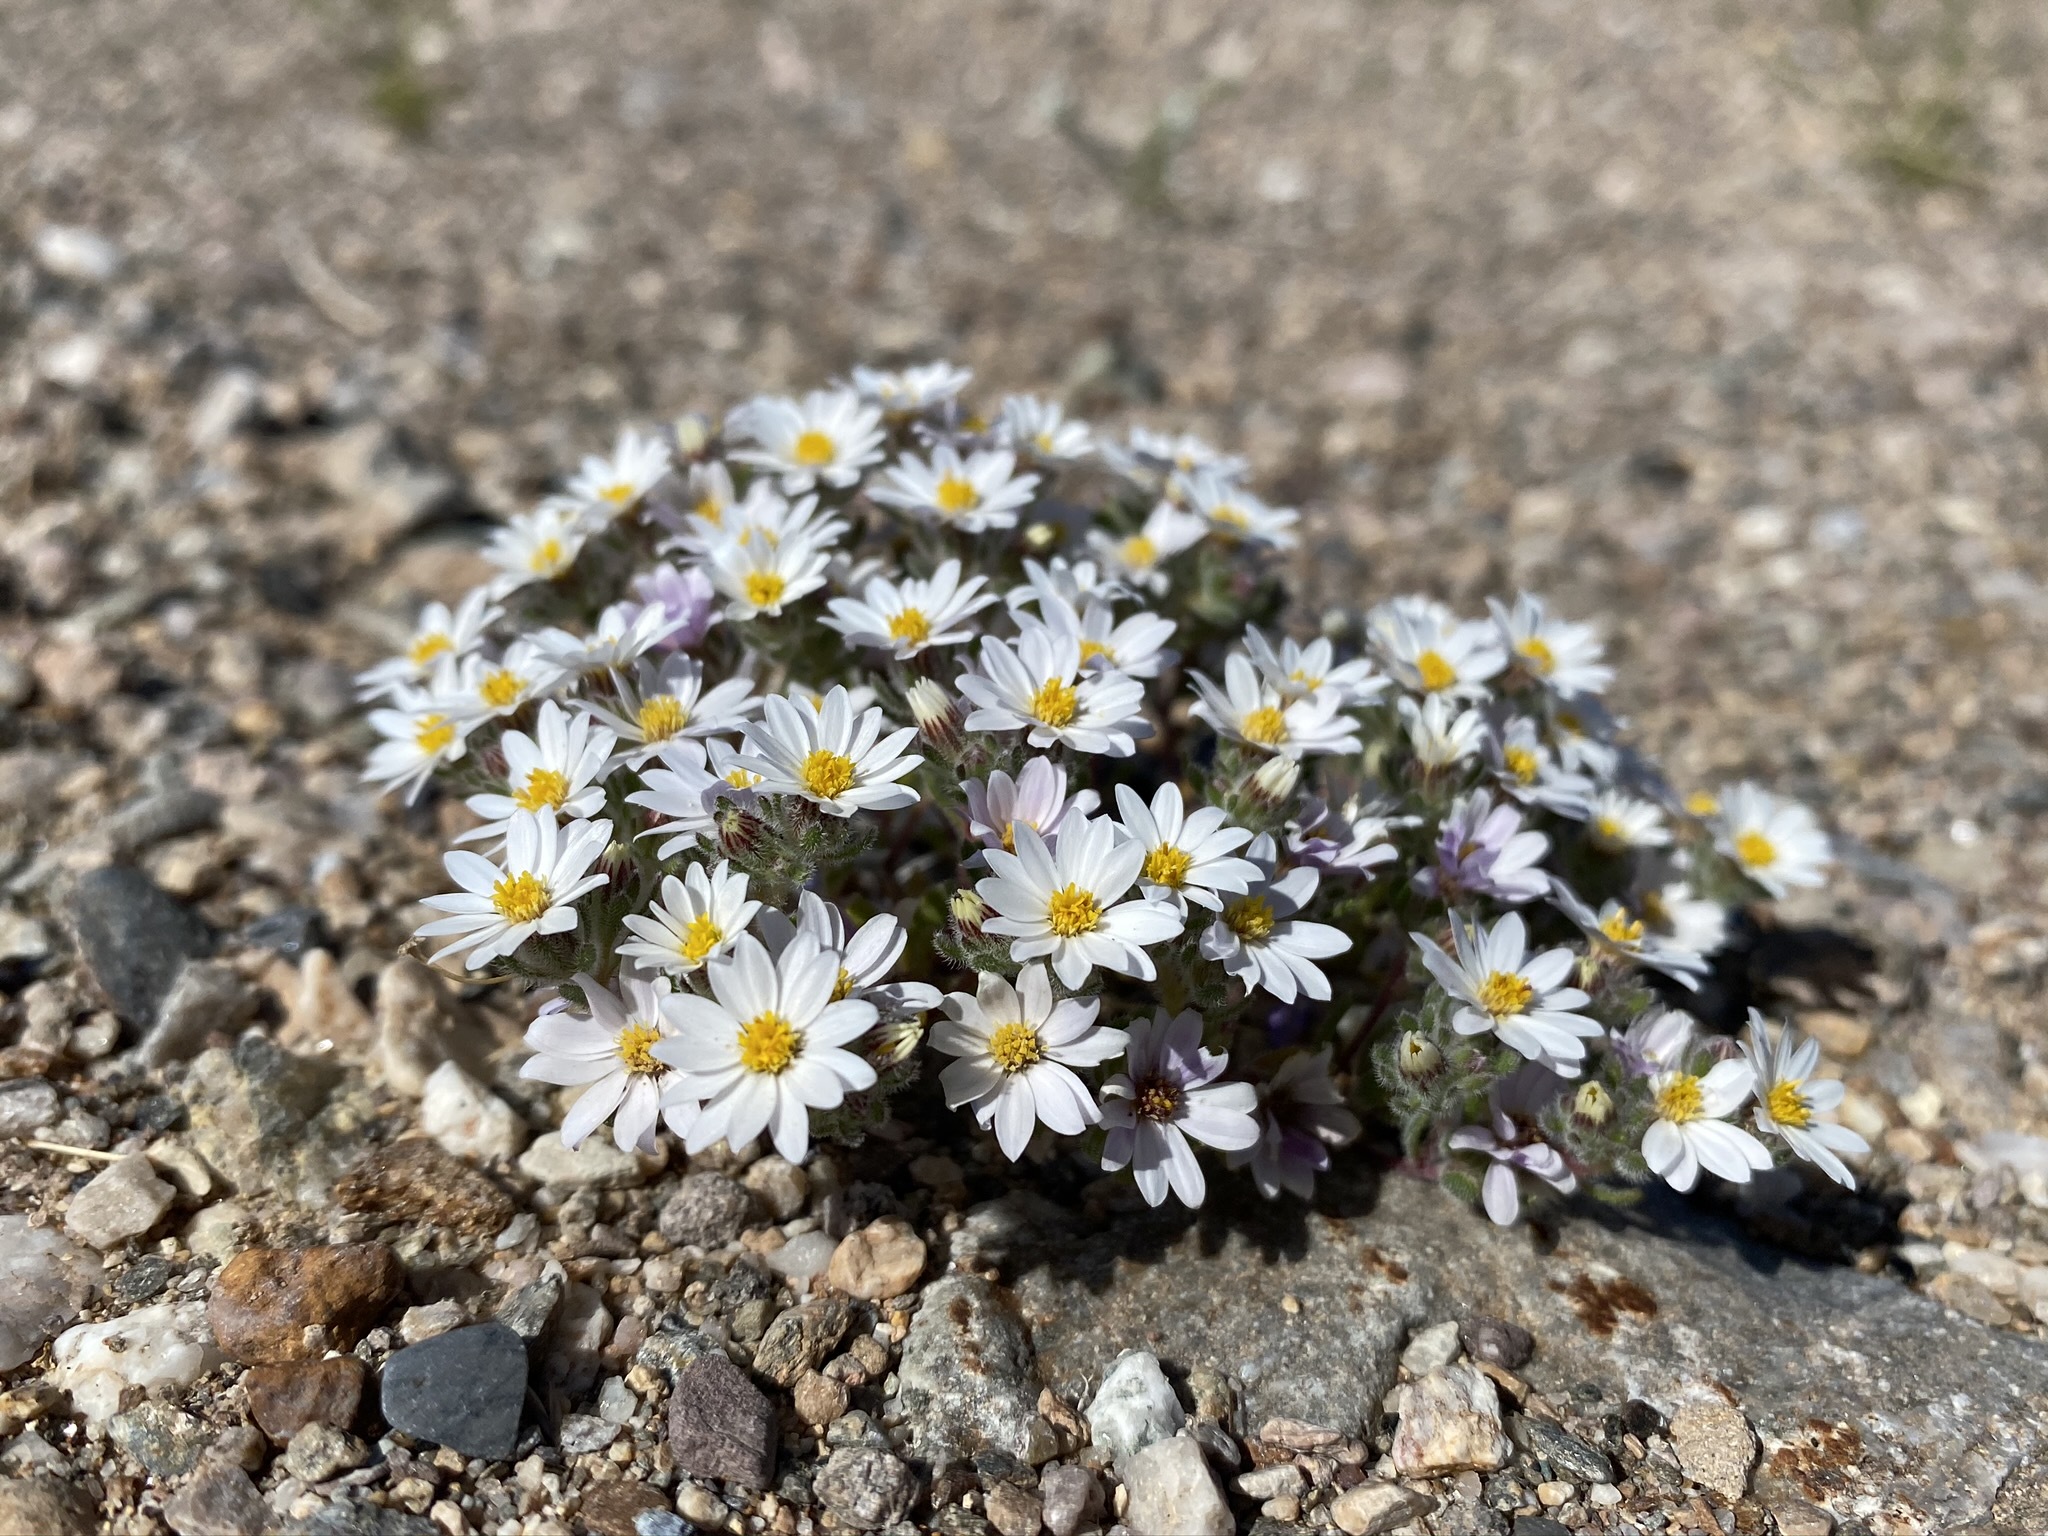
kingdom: Plantae
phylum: Tracheophyta
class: Magnoliopsida
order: Asterales
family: Asteraceae
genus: Monoptilon
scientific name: Monoptilon bellioides
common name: Bristly desertstar
